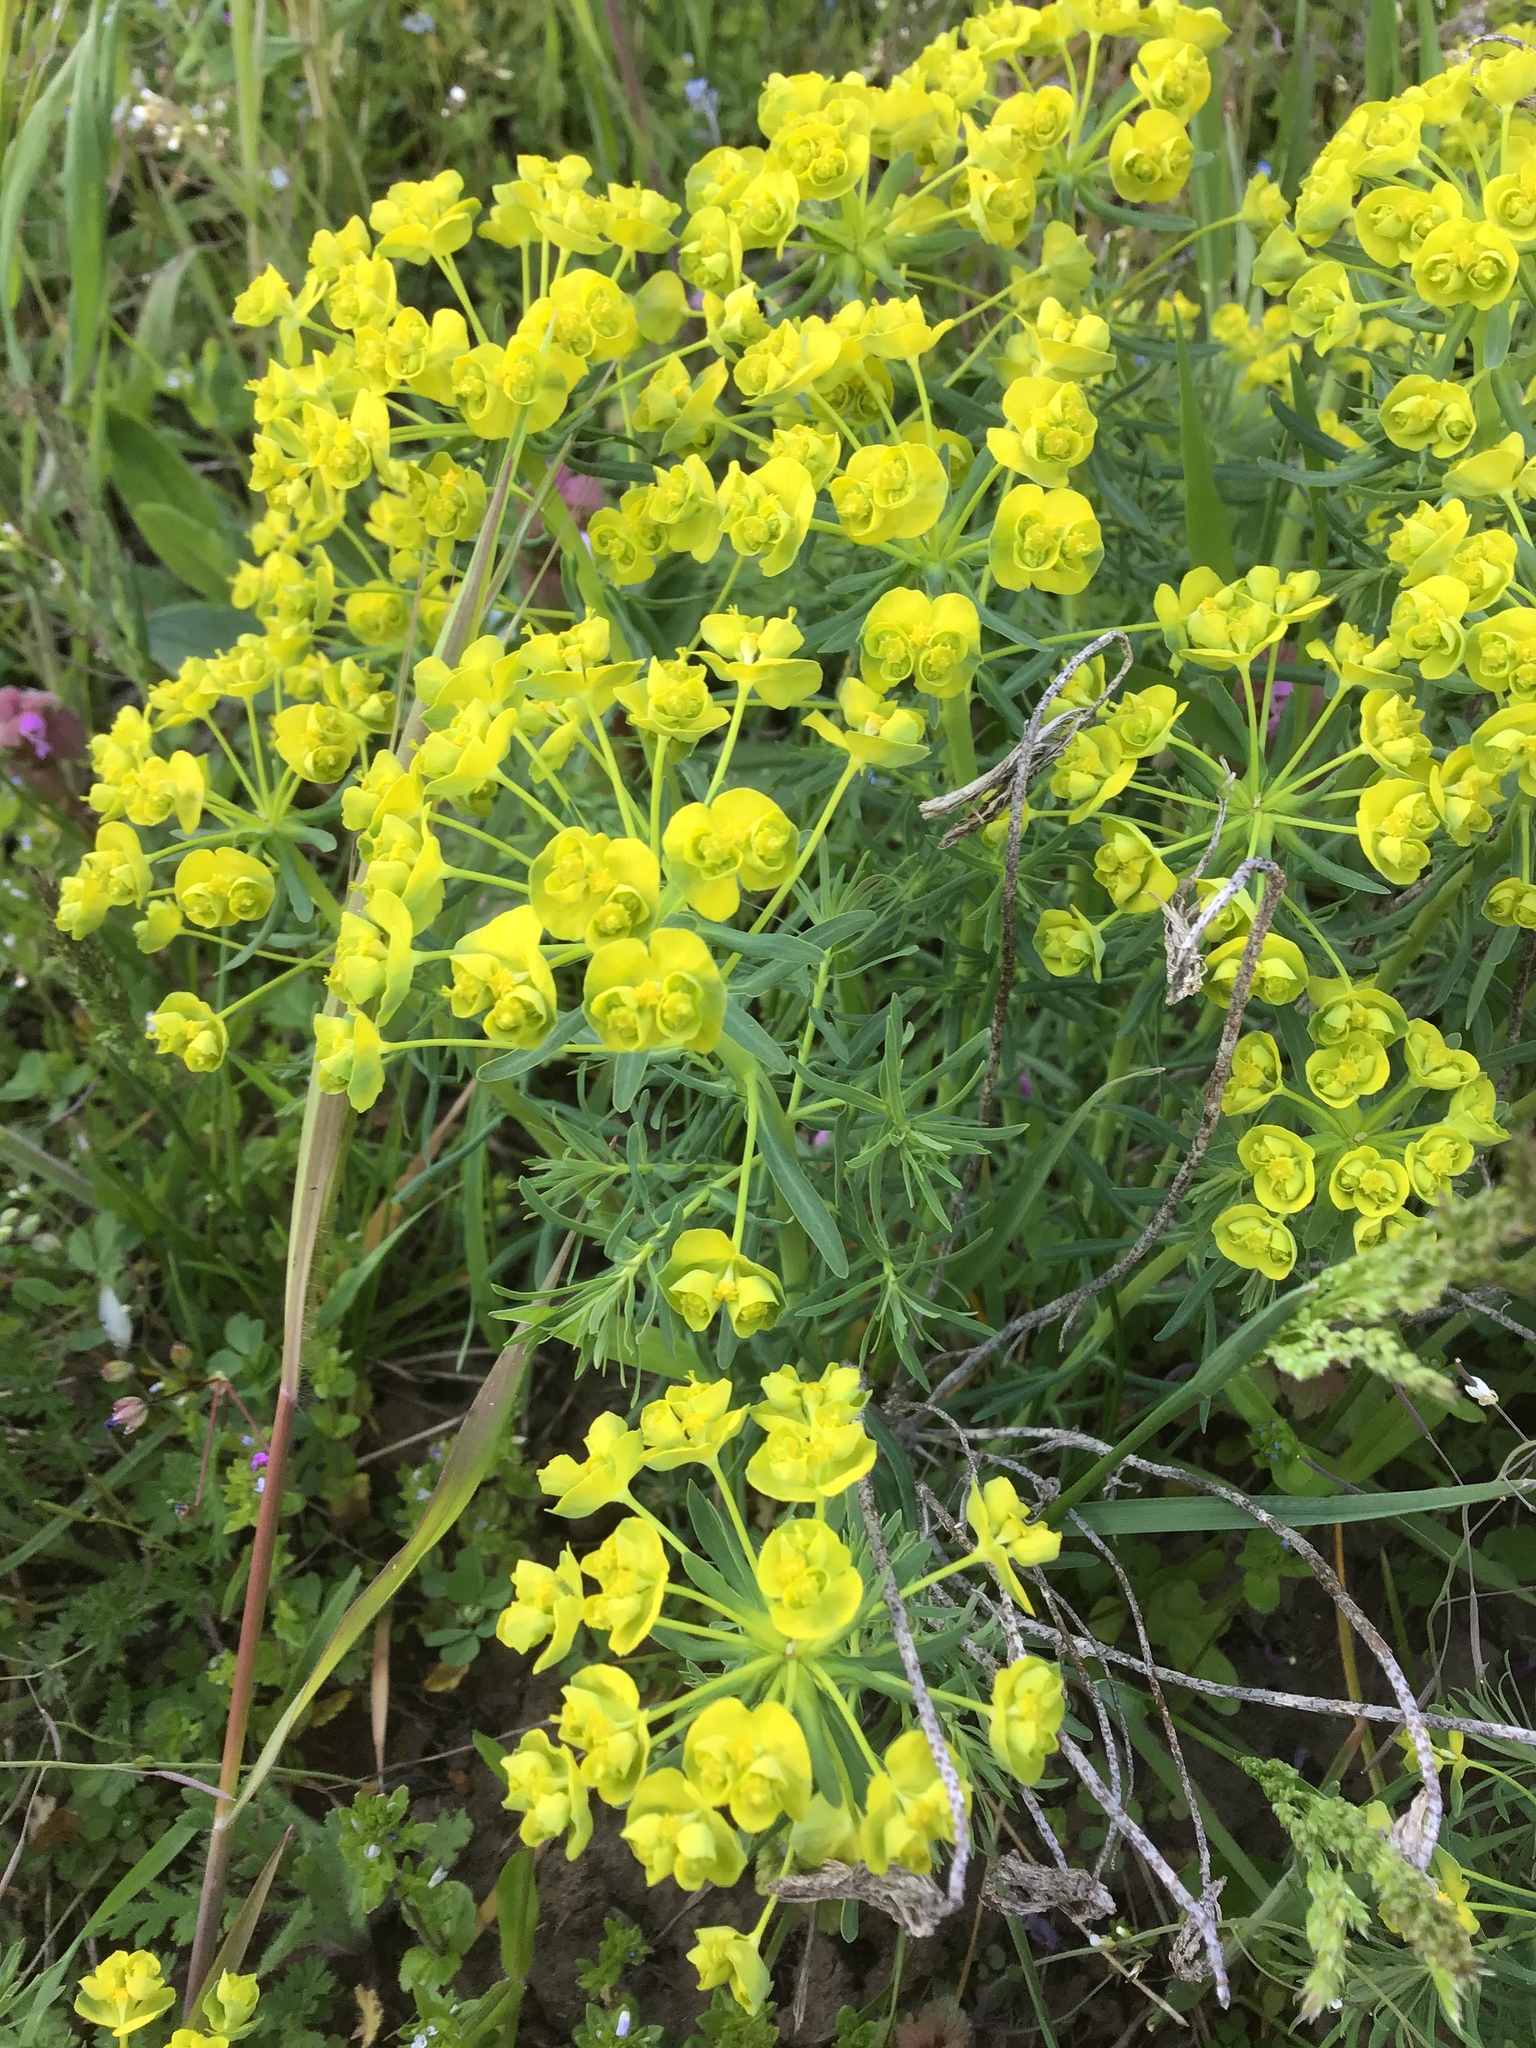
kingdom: Plantae
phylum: Tracheophyta
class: Magnoliopsida
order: Malpighiales
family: Euphorbiaceae
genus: Euphorbia
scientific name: Euphorbia cyparissias
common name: Cypress spurge
